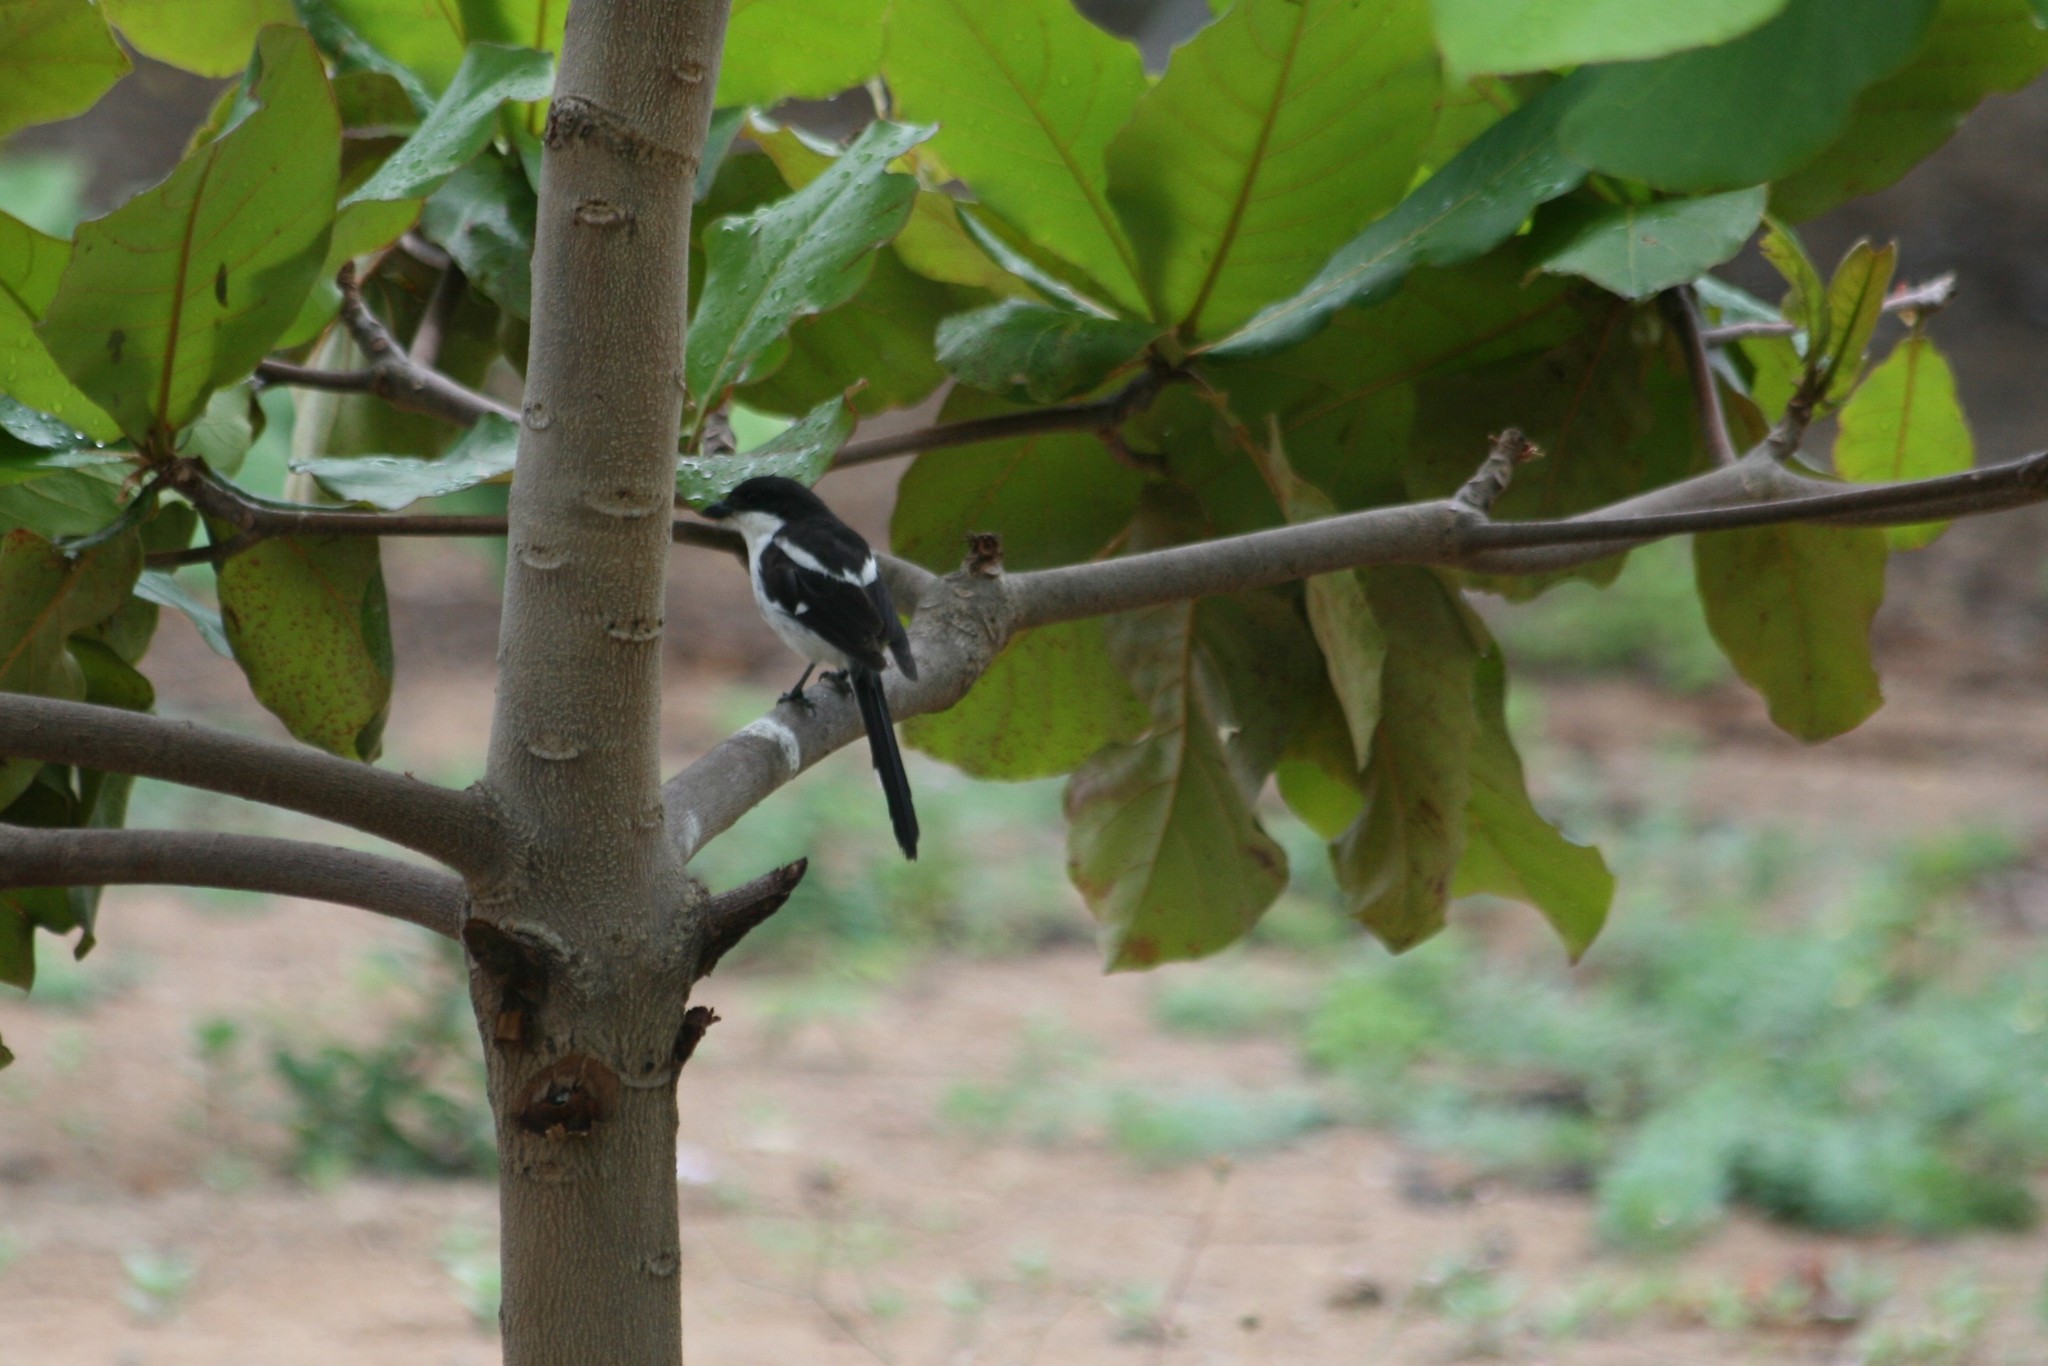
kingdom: Animalia
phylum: Chordata
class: Aves
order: Passeriformes
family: Laniidae
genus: Lanius
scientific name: Lanius humeralis
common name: Northern fiscal
